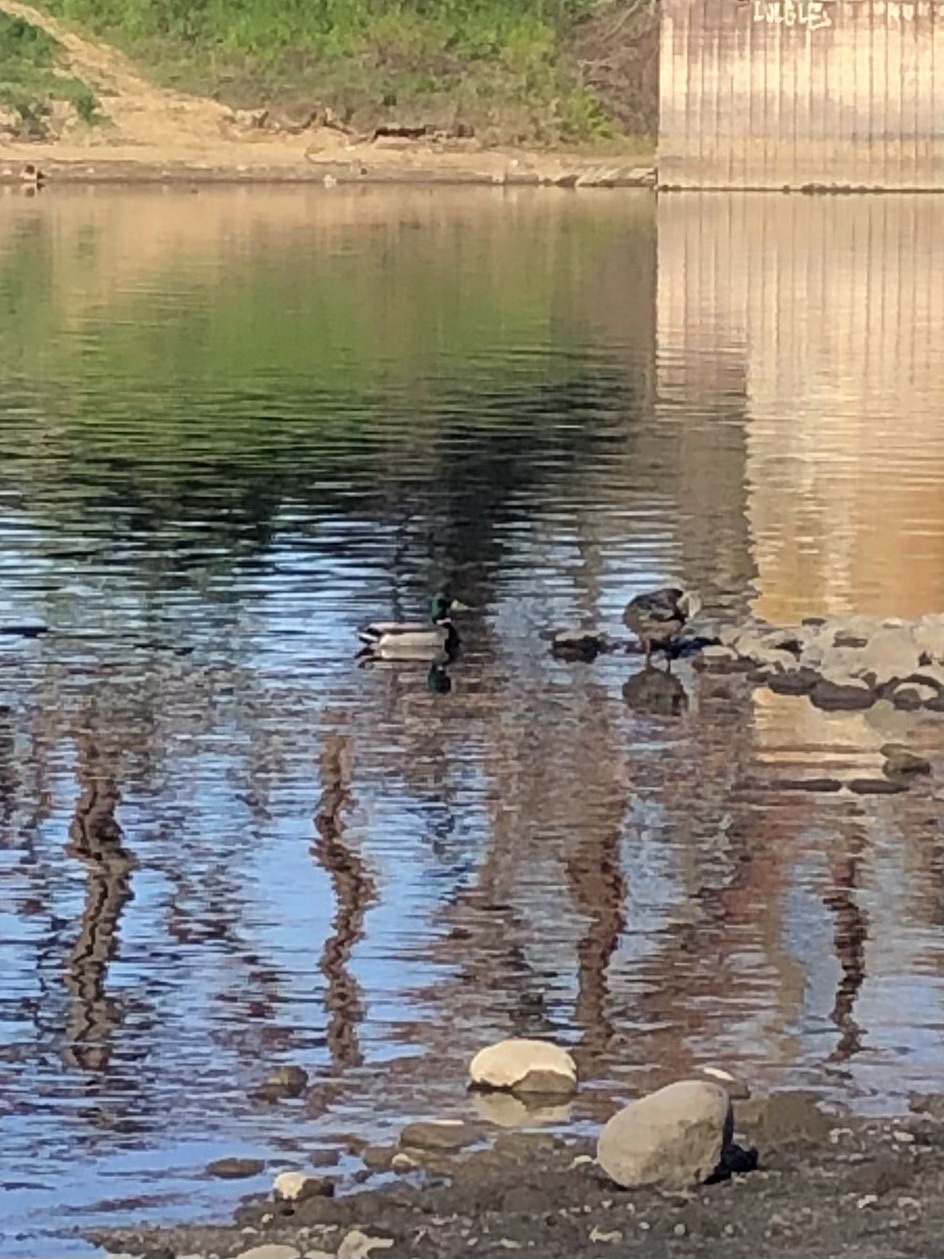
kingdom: Animalia
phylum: Chordata
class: Aves
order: Anseriformes
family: Anatidae
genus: Anas
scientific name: Anas platyrhynchos
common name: Mallard
